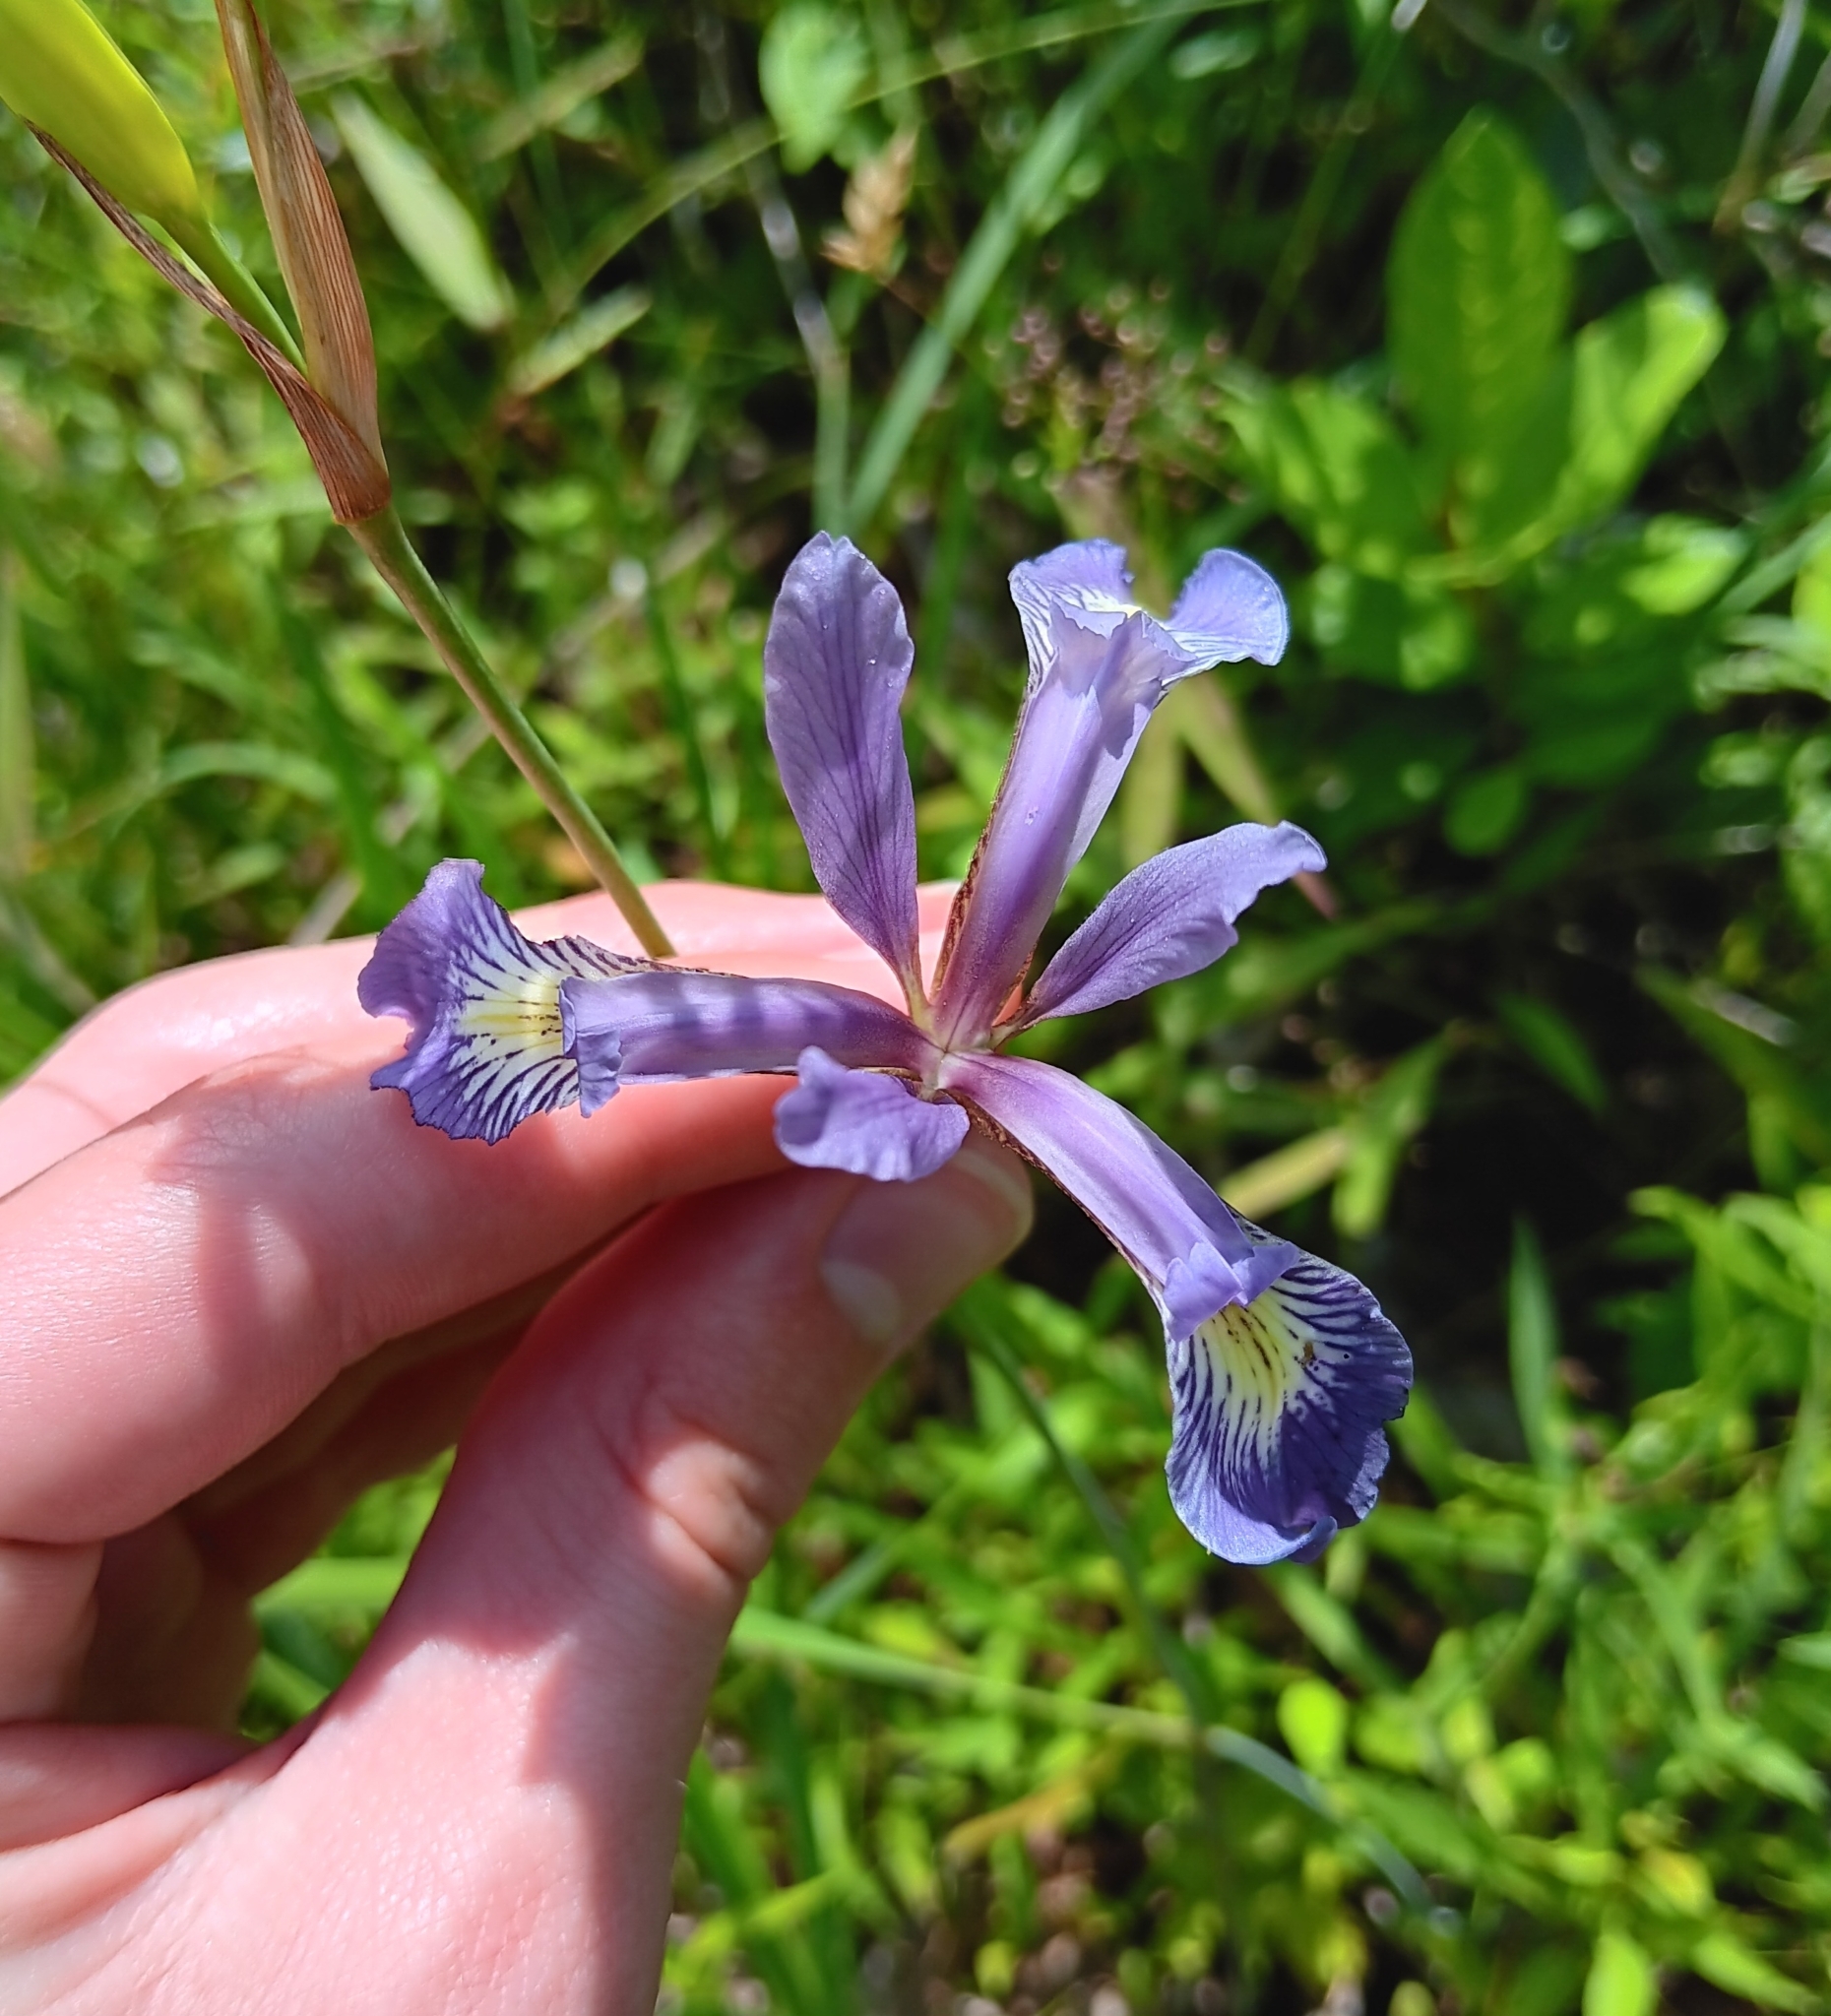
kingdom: Plantae
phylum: Tracheophyta
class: Liliopsida
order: Asparagales
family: Iridaceae
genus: Iris
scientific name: Iris prismatica
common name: Slender blue flag
